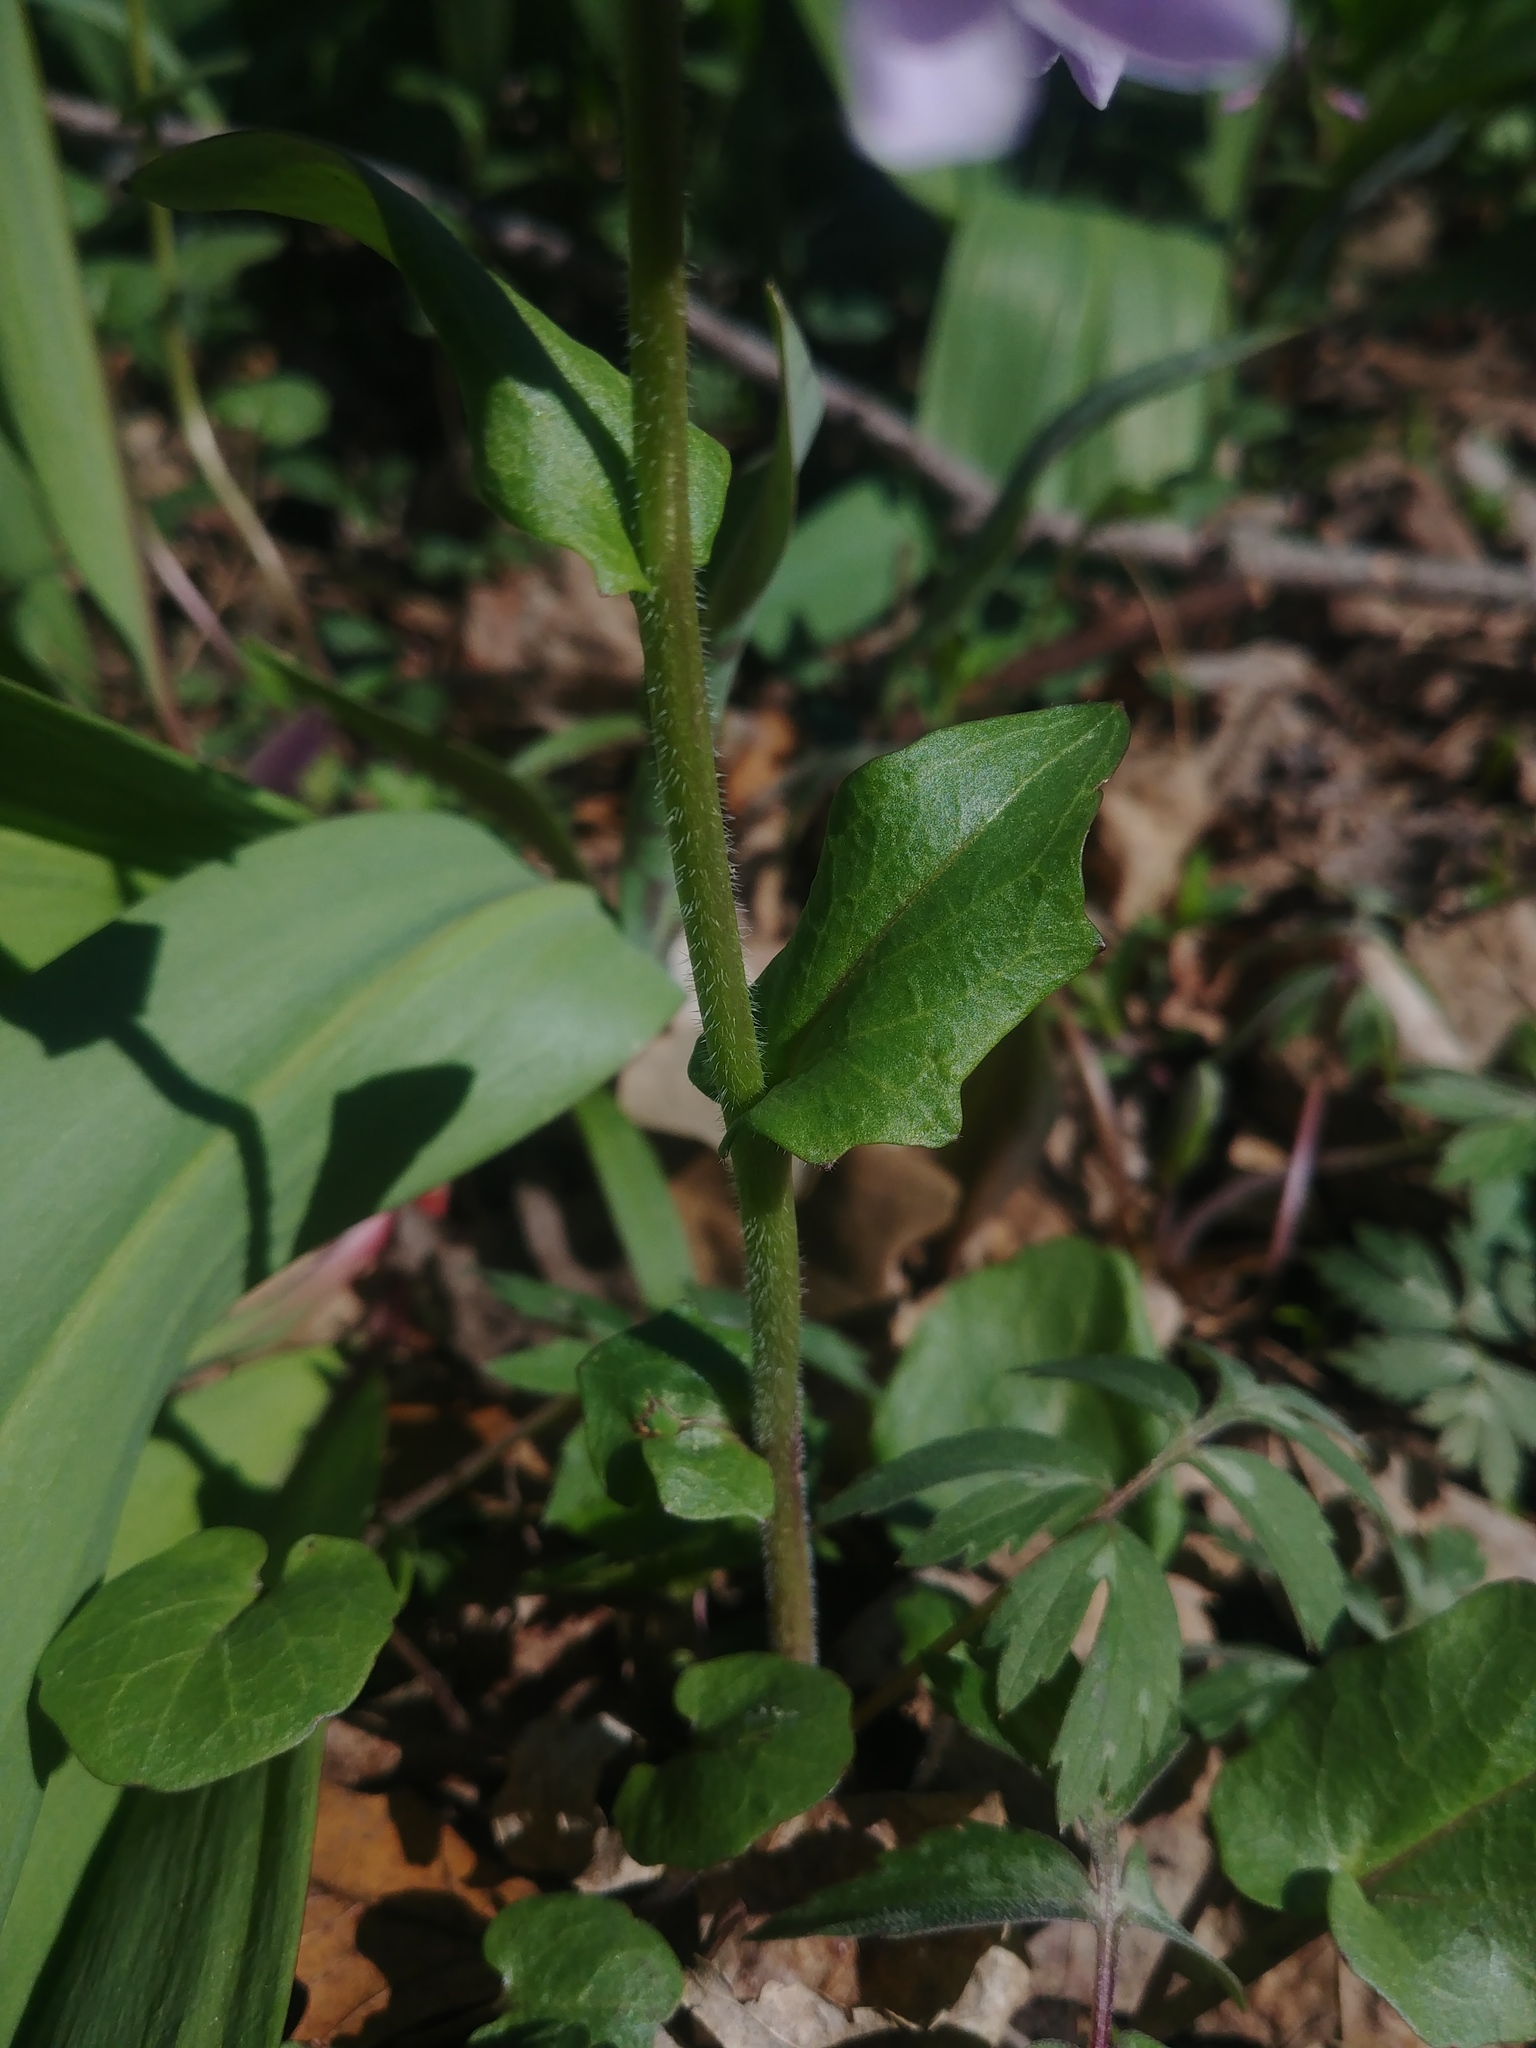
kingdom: Plantae
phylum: Tracheophyta
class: Magnoliopsida
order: Brassicales
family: Brassicaceae
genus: Cardamine
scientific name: Cardamine douglassii
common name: Purple cress
